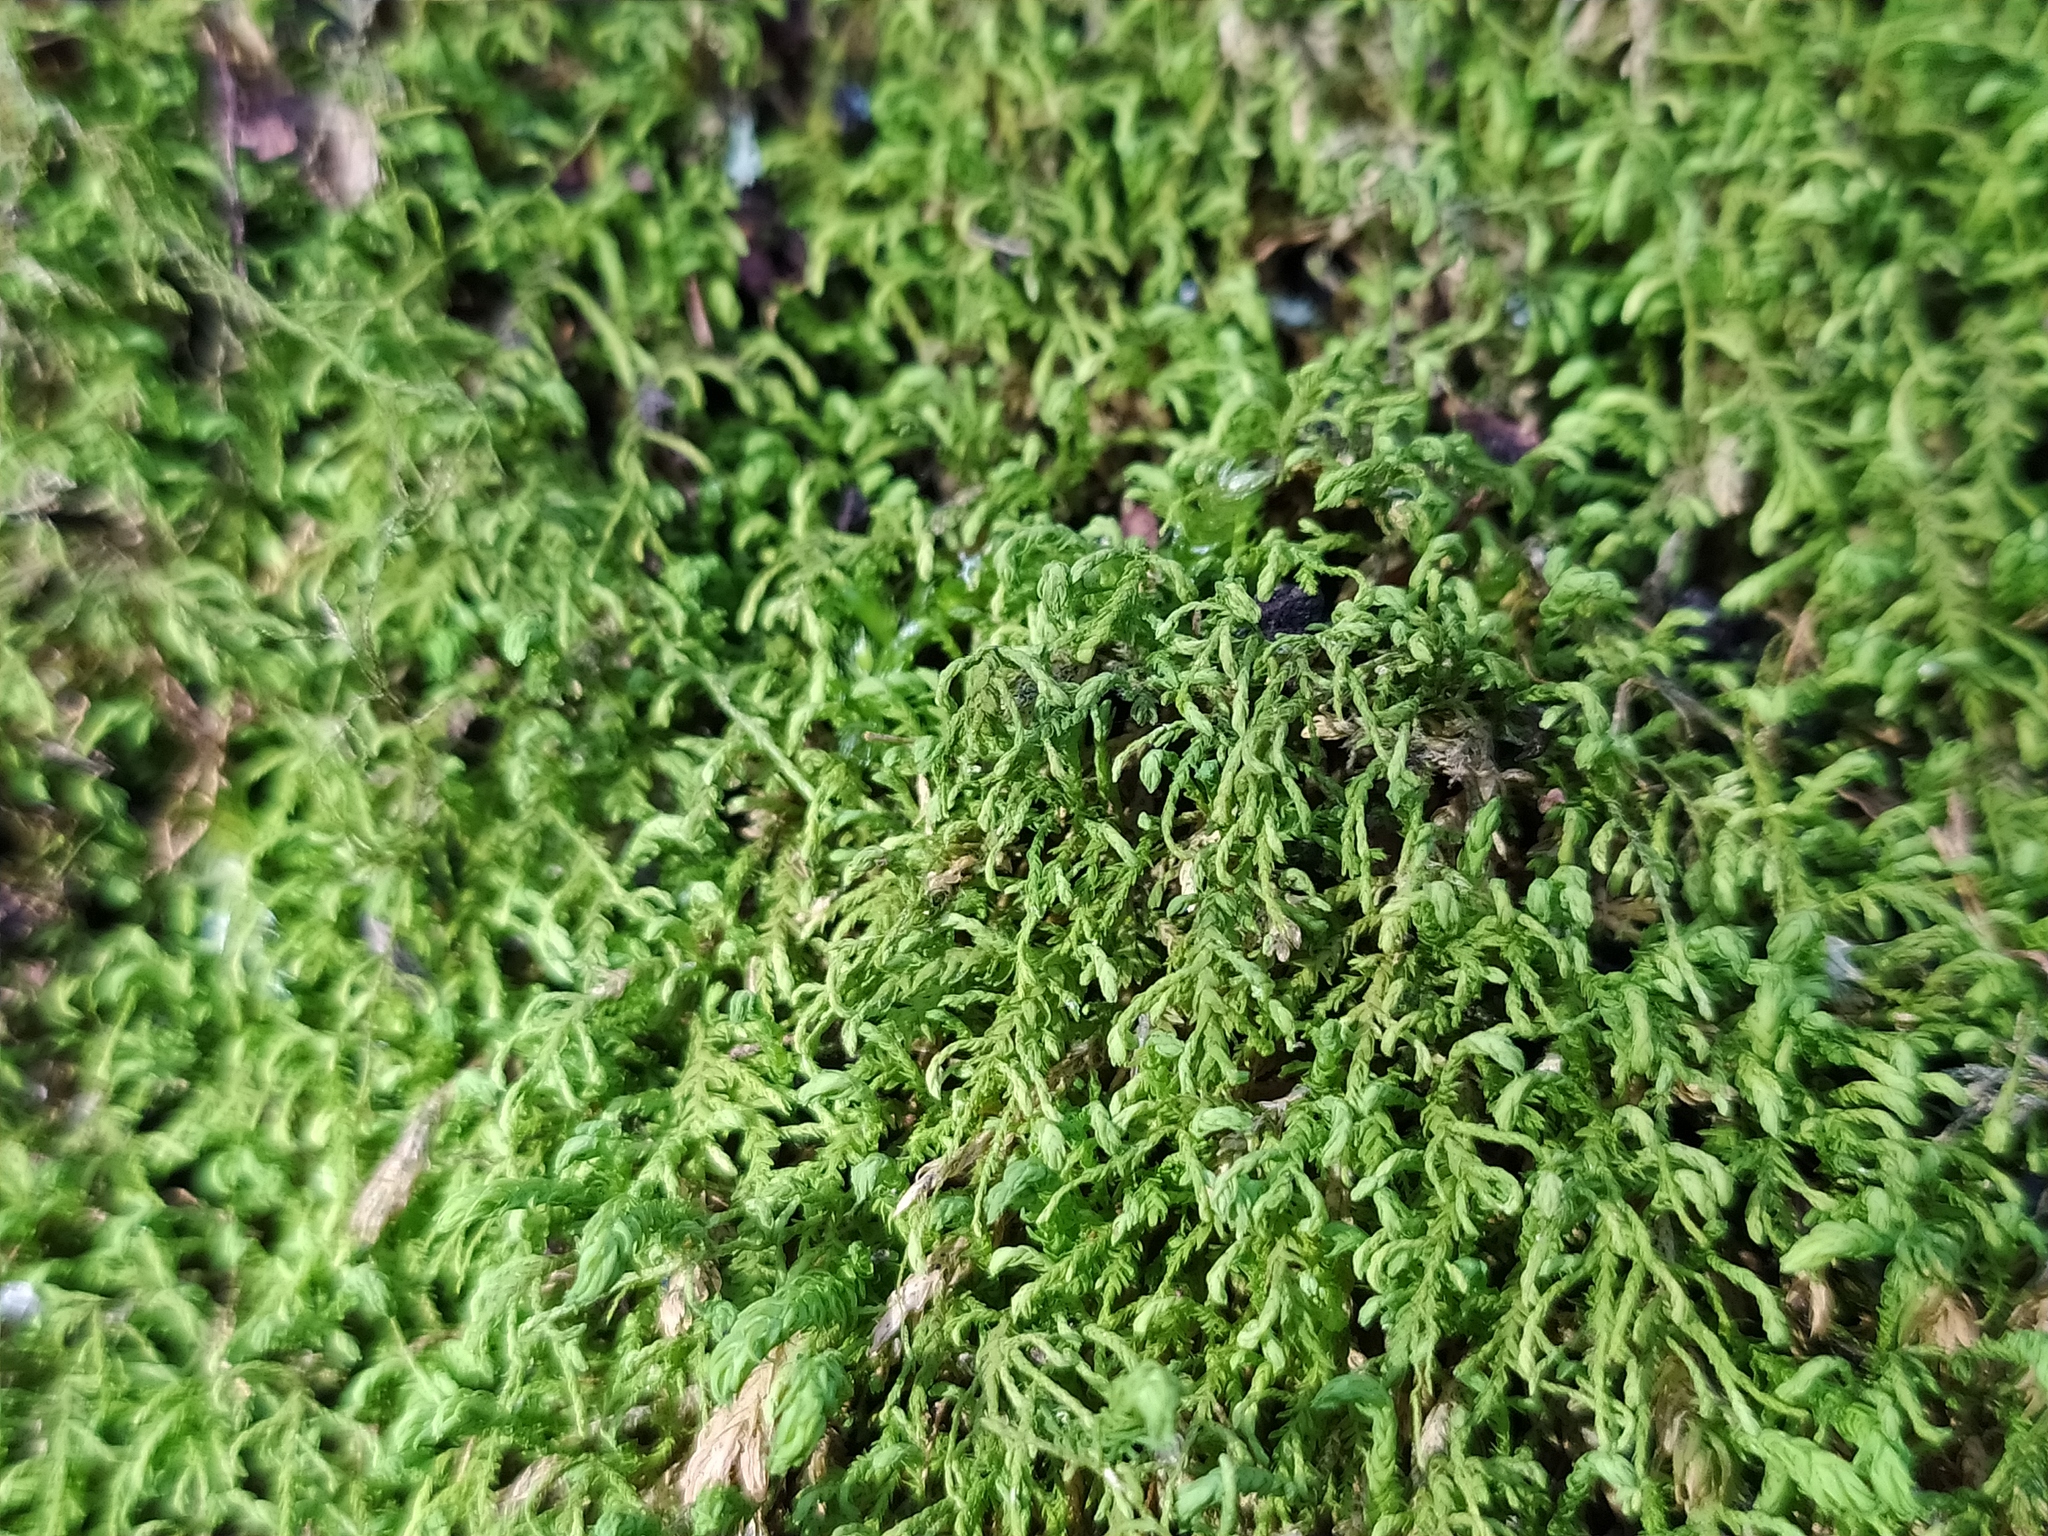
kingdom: Plantae
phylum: Bryophyta
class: Bryopsida
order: Hypnales
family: Neckeraceae
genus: Pseudanomodon
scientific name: Pseudanomodon attenuatus
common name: Tree-skirt moss
